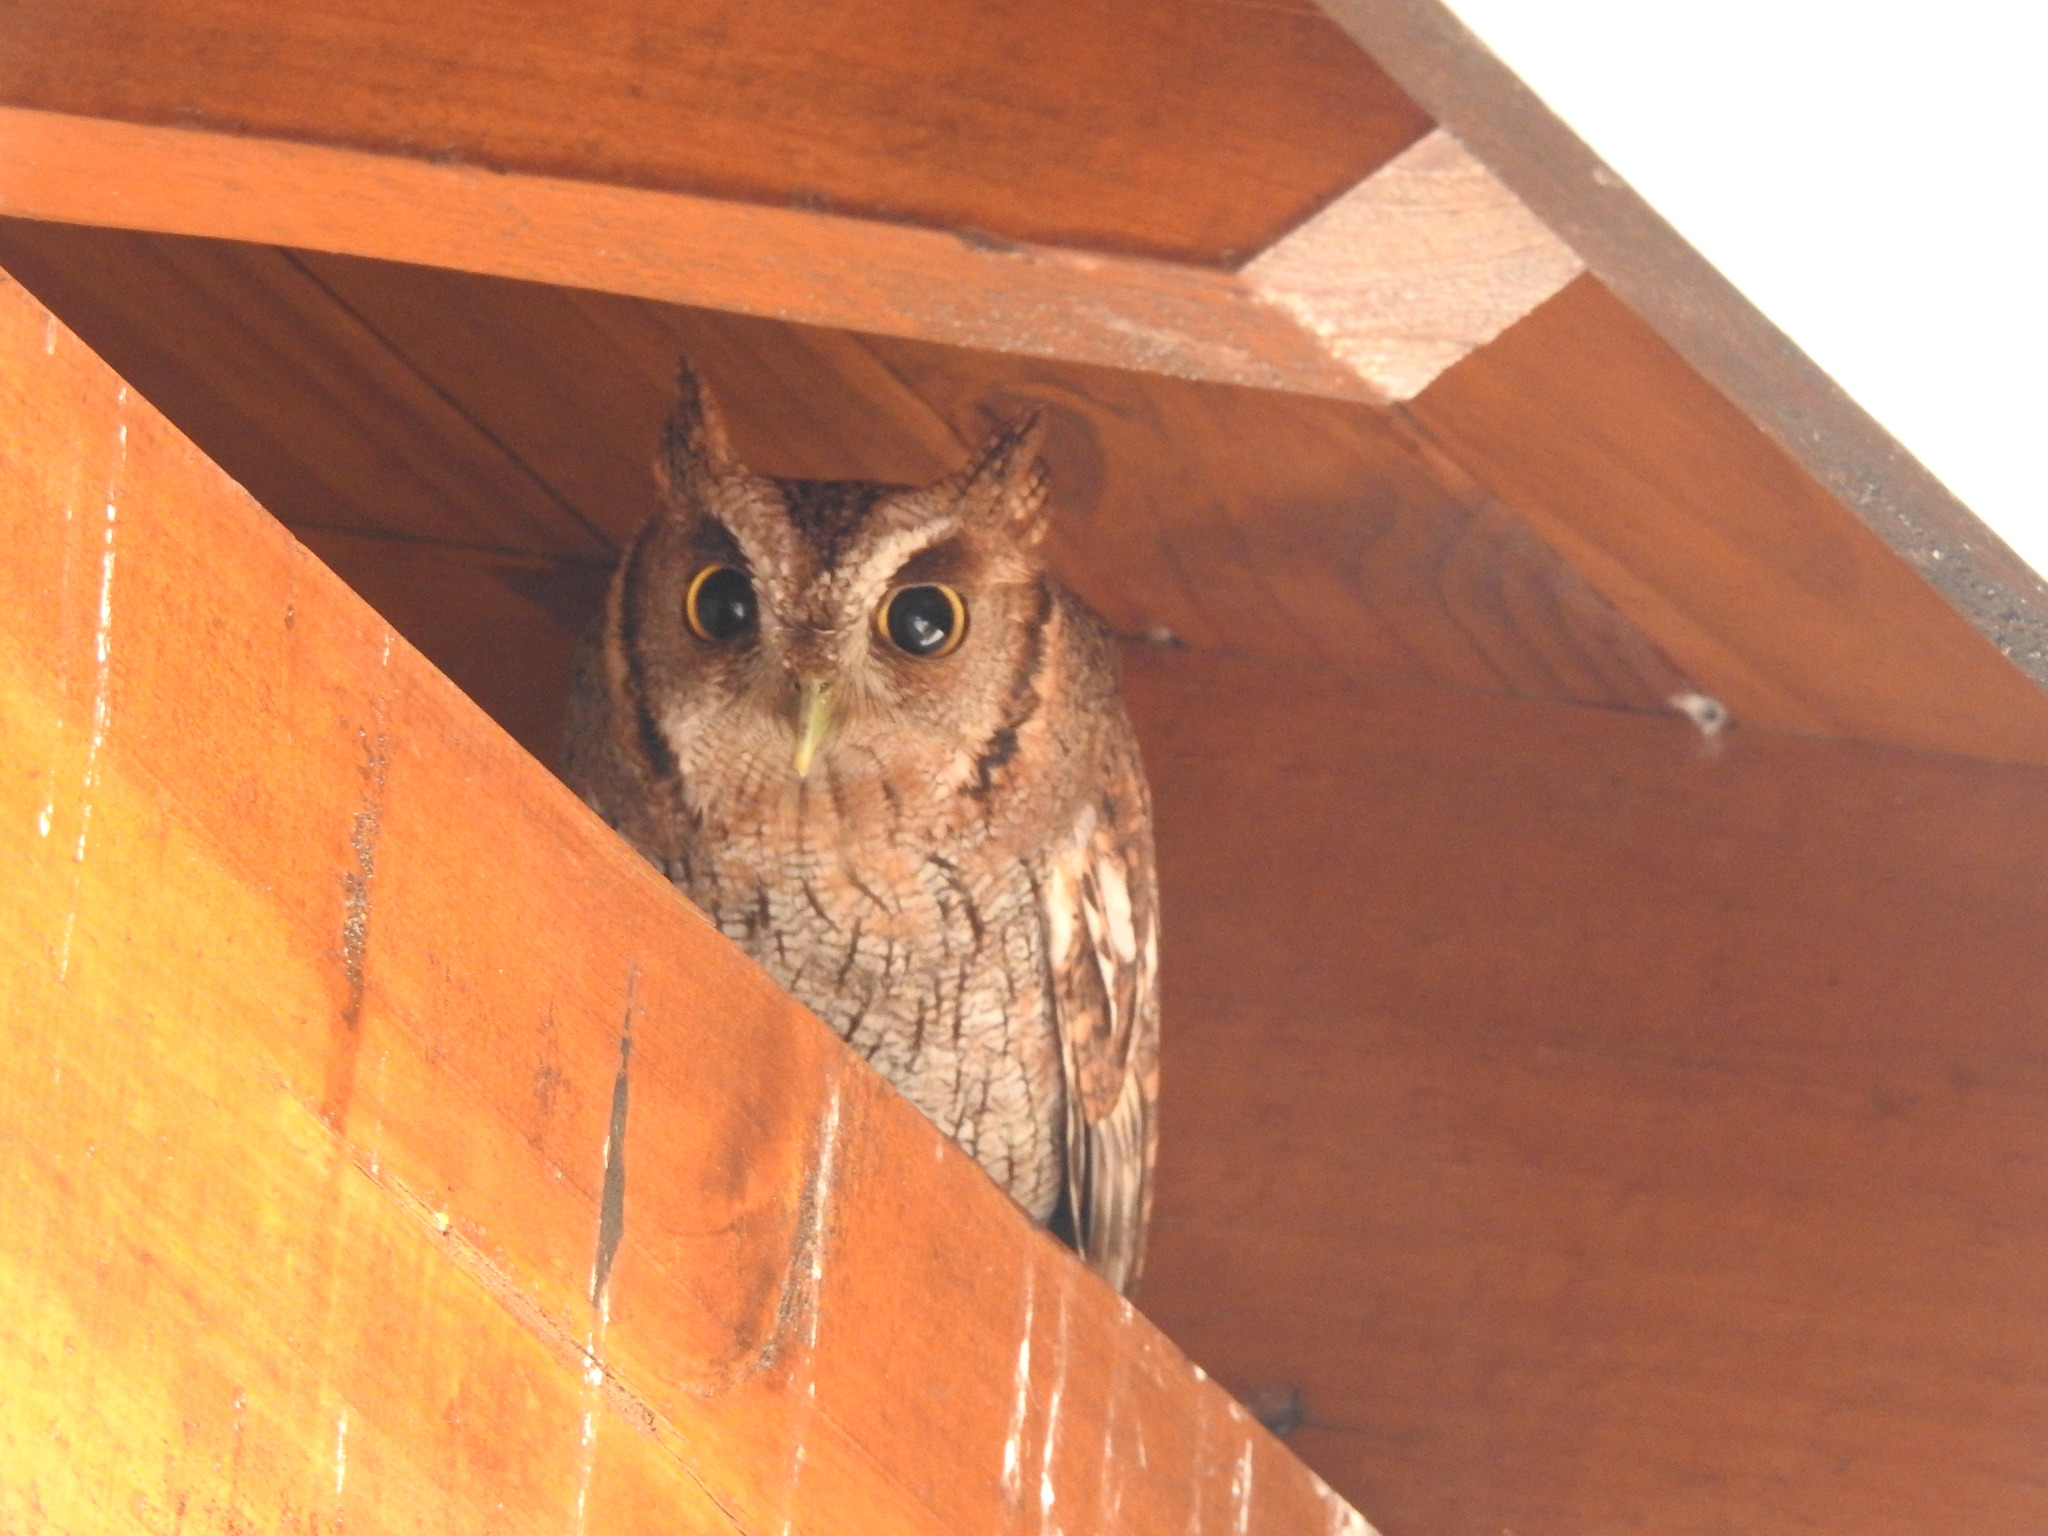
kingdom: Animalia
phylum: Chordata
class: Aves
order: Strigiformes
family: Strigidae
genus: Megascops
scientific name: Megascops choliba
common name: Tropical screech-owl
